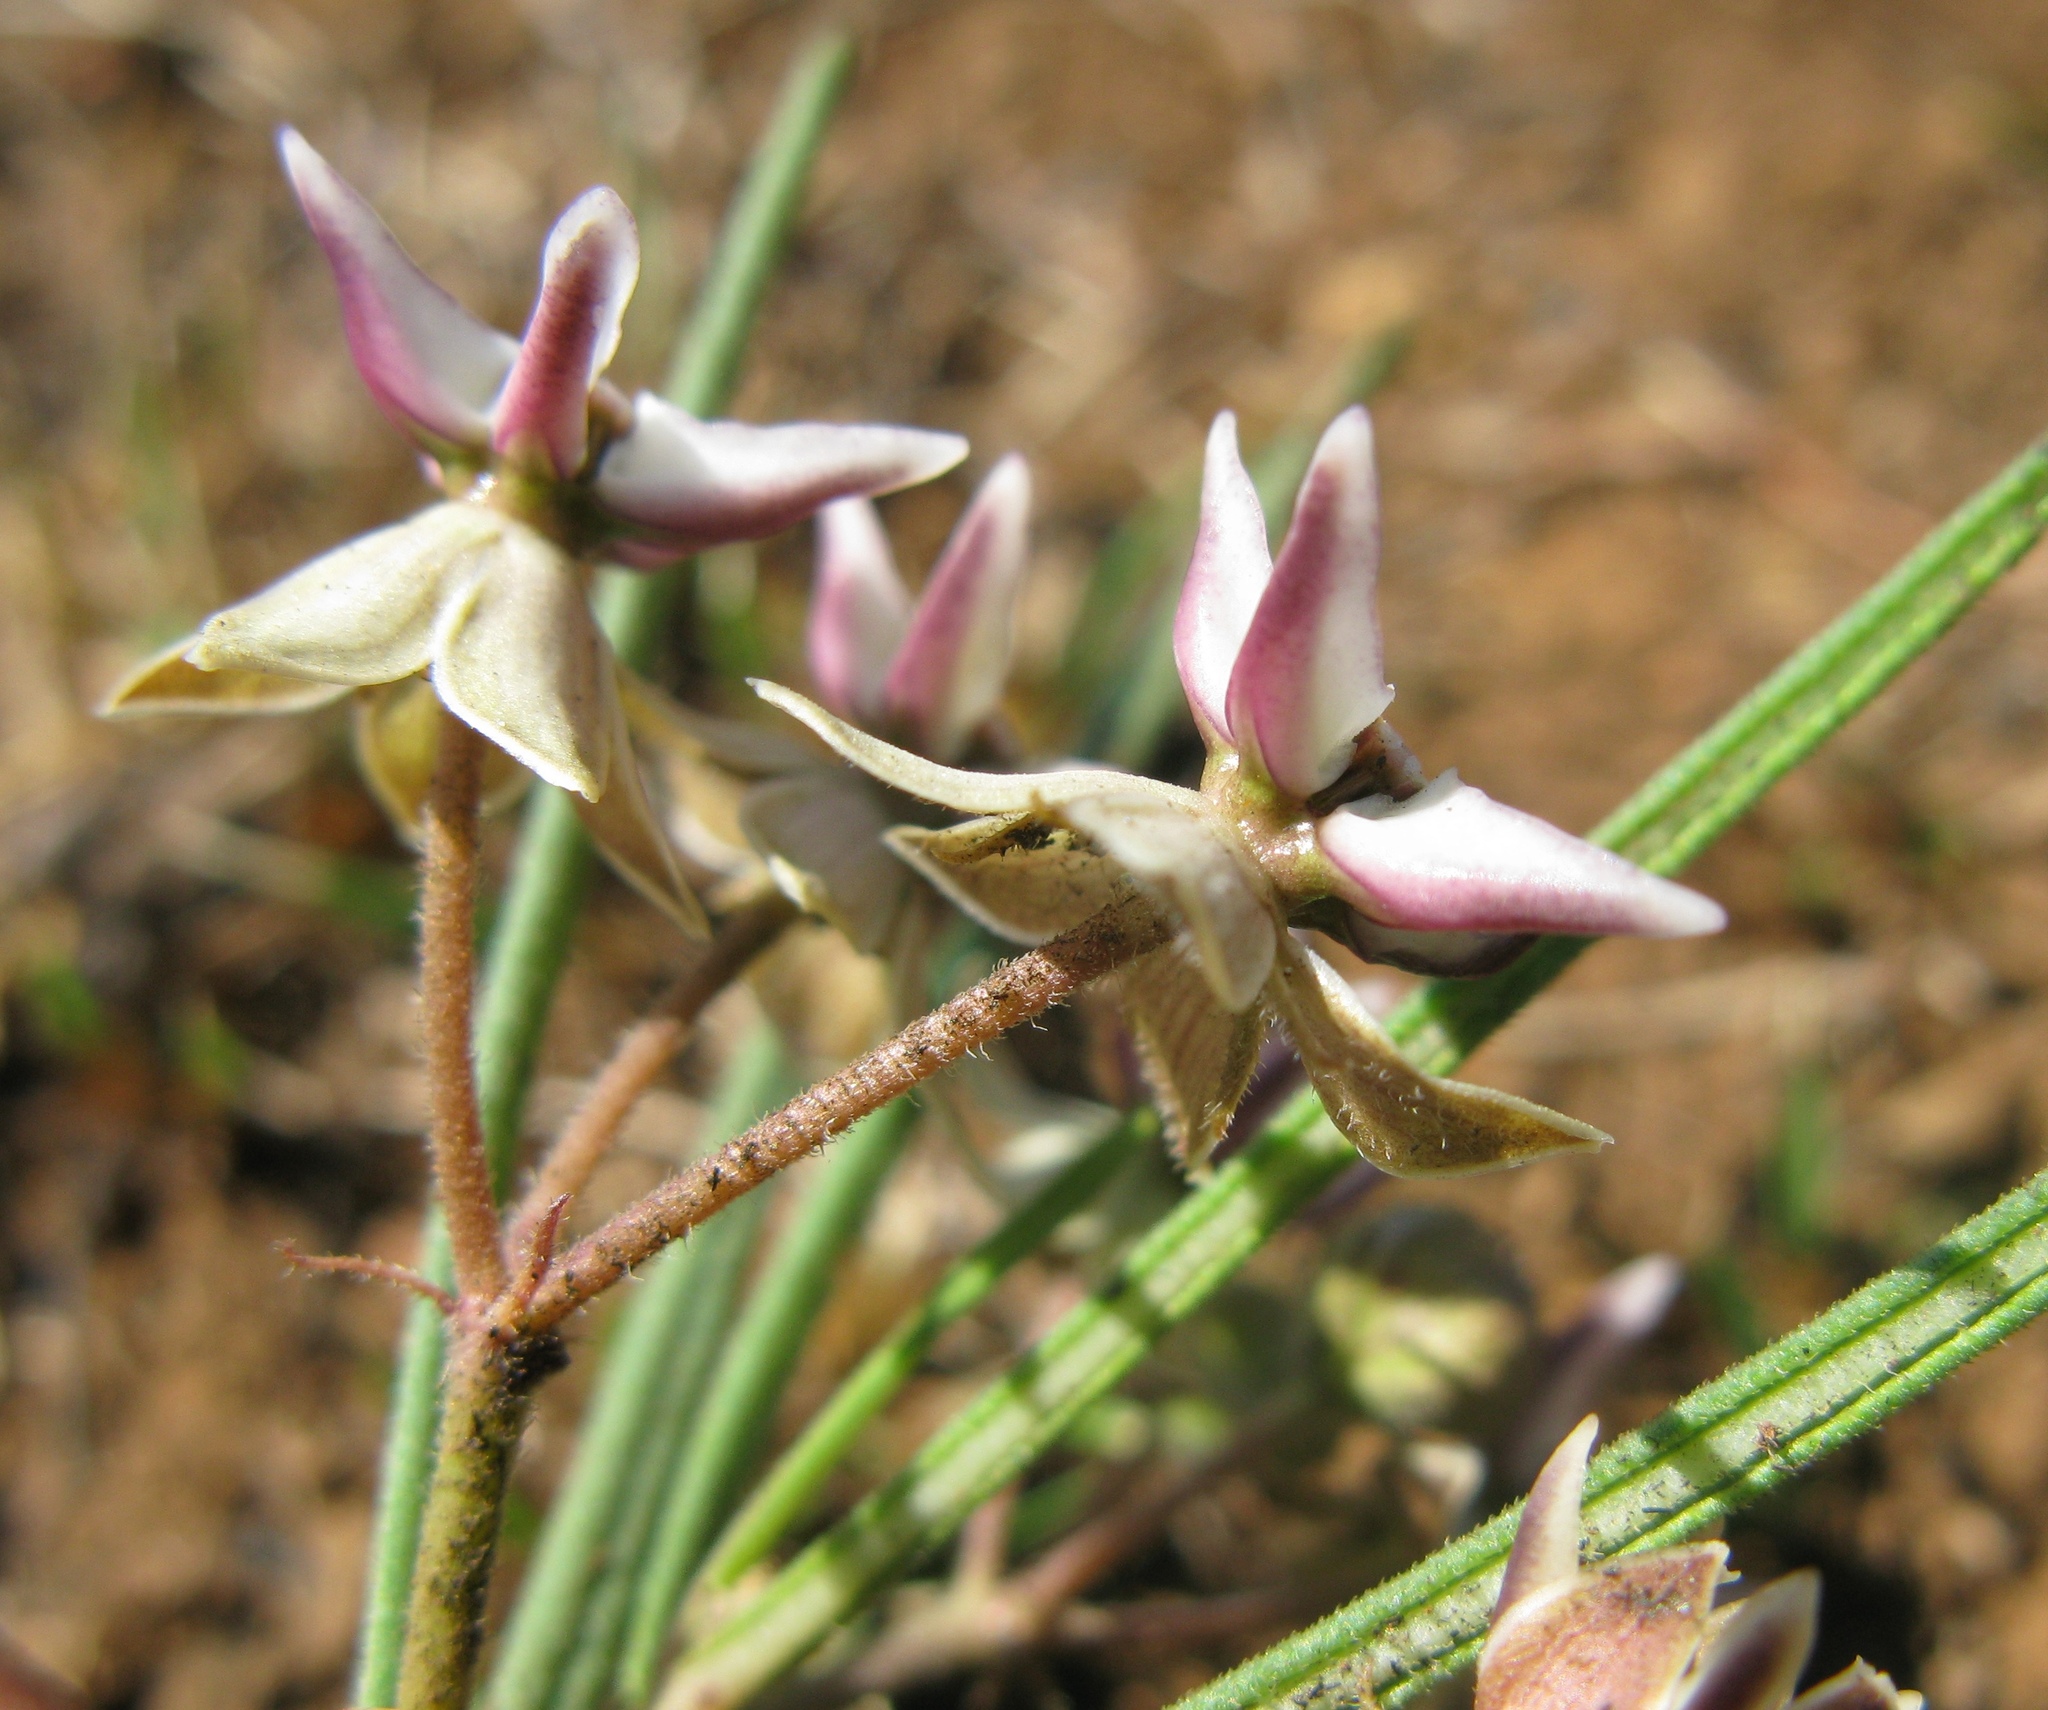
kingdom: Plantae
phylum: Tracheophyta
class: Magnoliopsida
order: Gentianales
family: Apocynaceae
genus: Asclepias
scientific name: Asclepias stellifera
